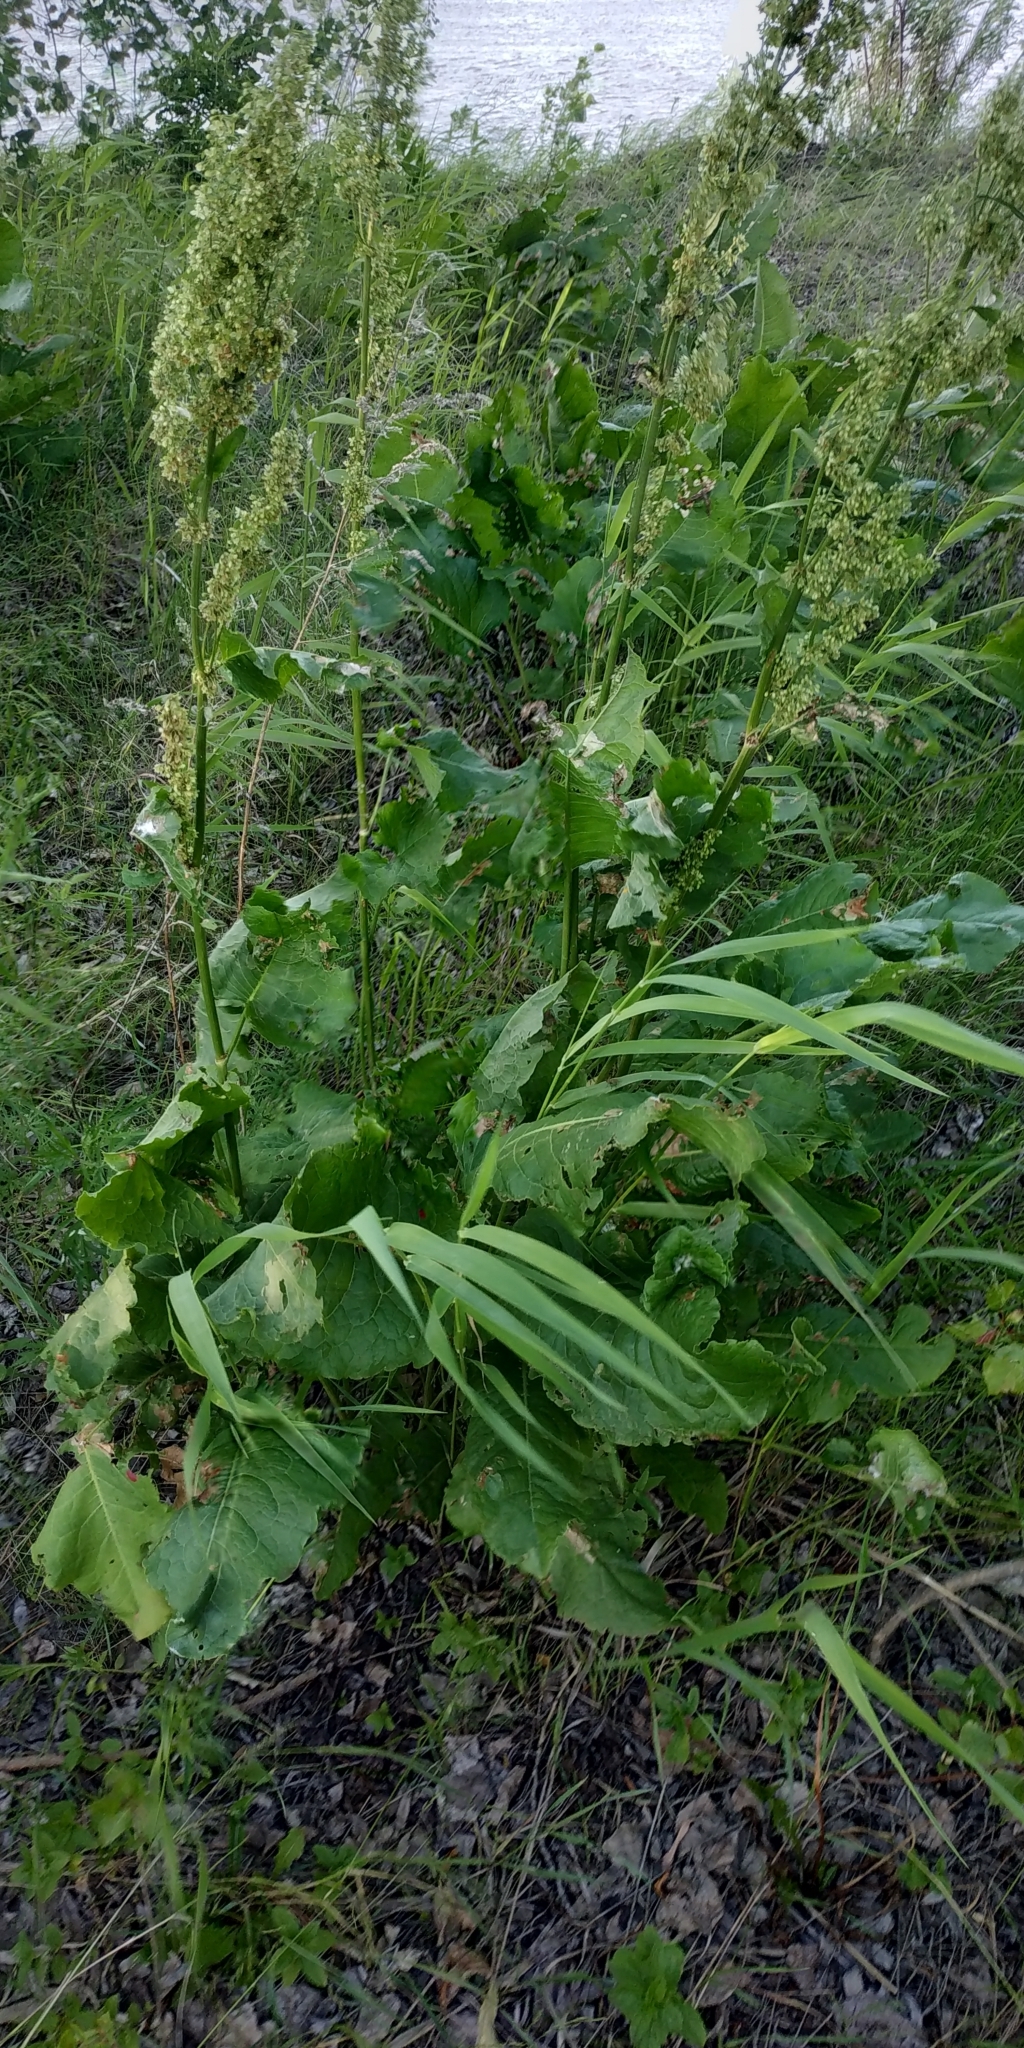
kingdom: Plantae
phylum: Tracheophyta
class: Magnoliopsida
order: Caryophyllales
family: Polygonaceae
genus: Rumex
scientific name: Rumex confertus
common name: Russian dock
